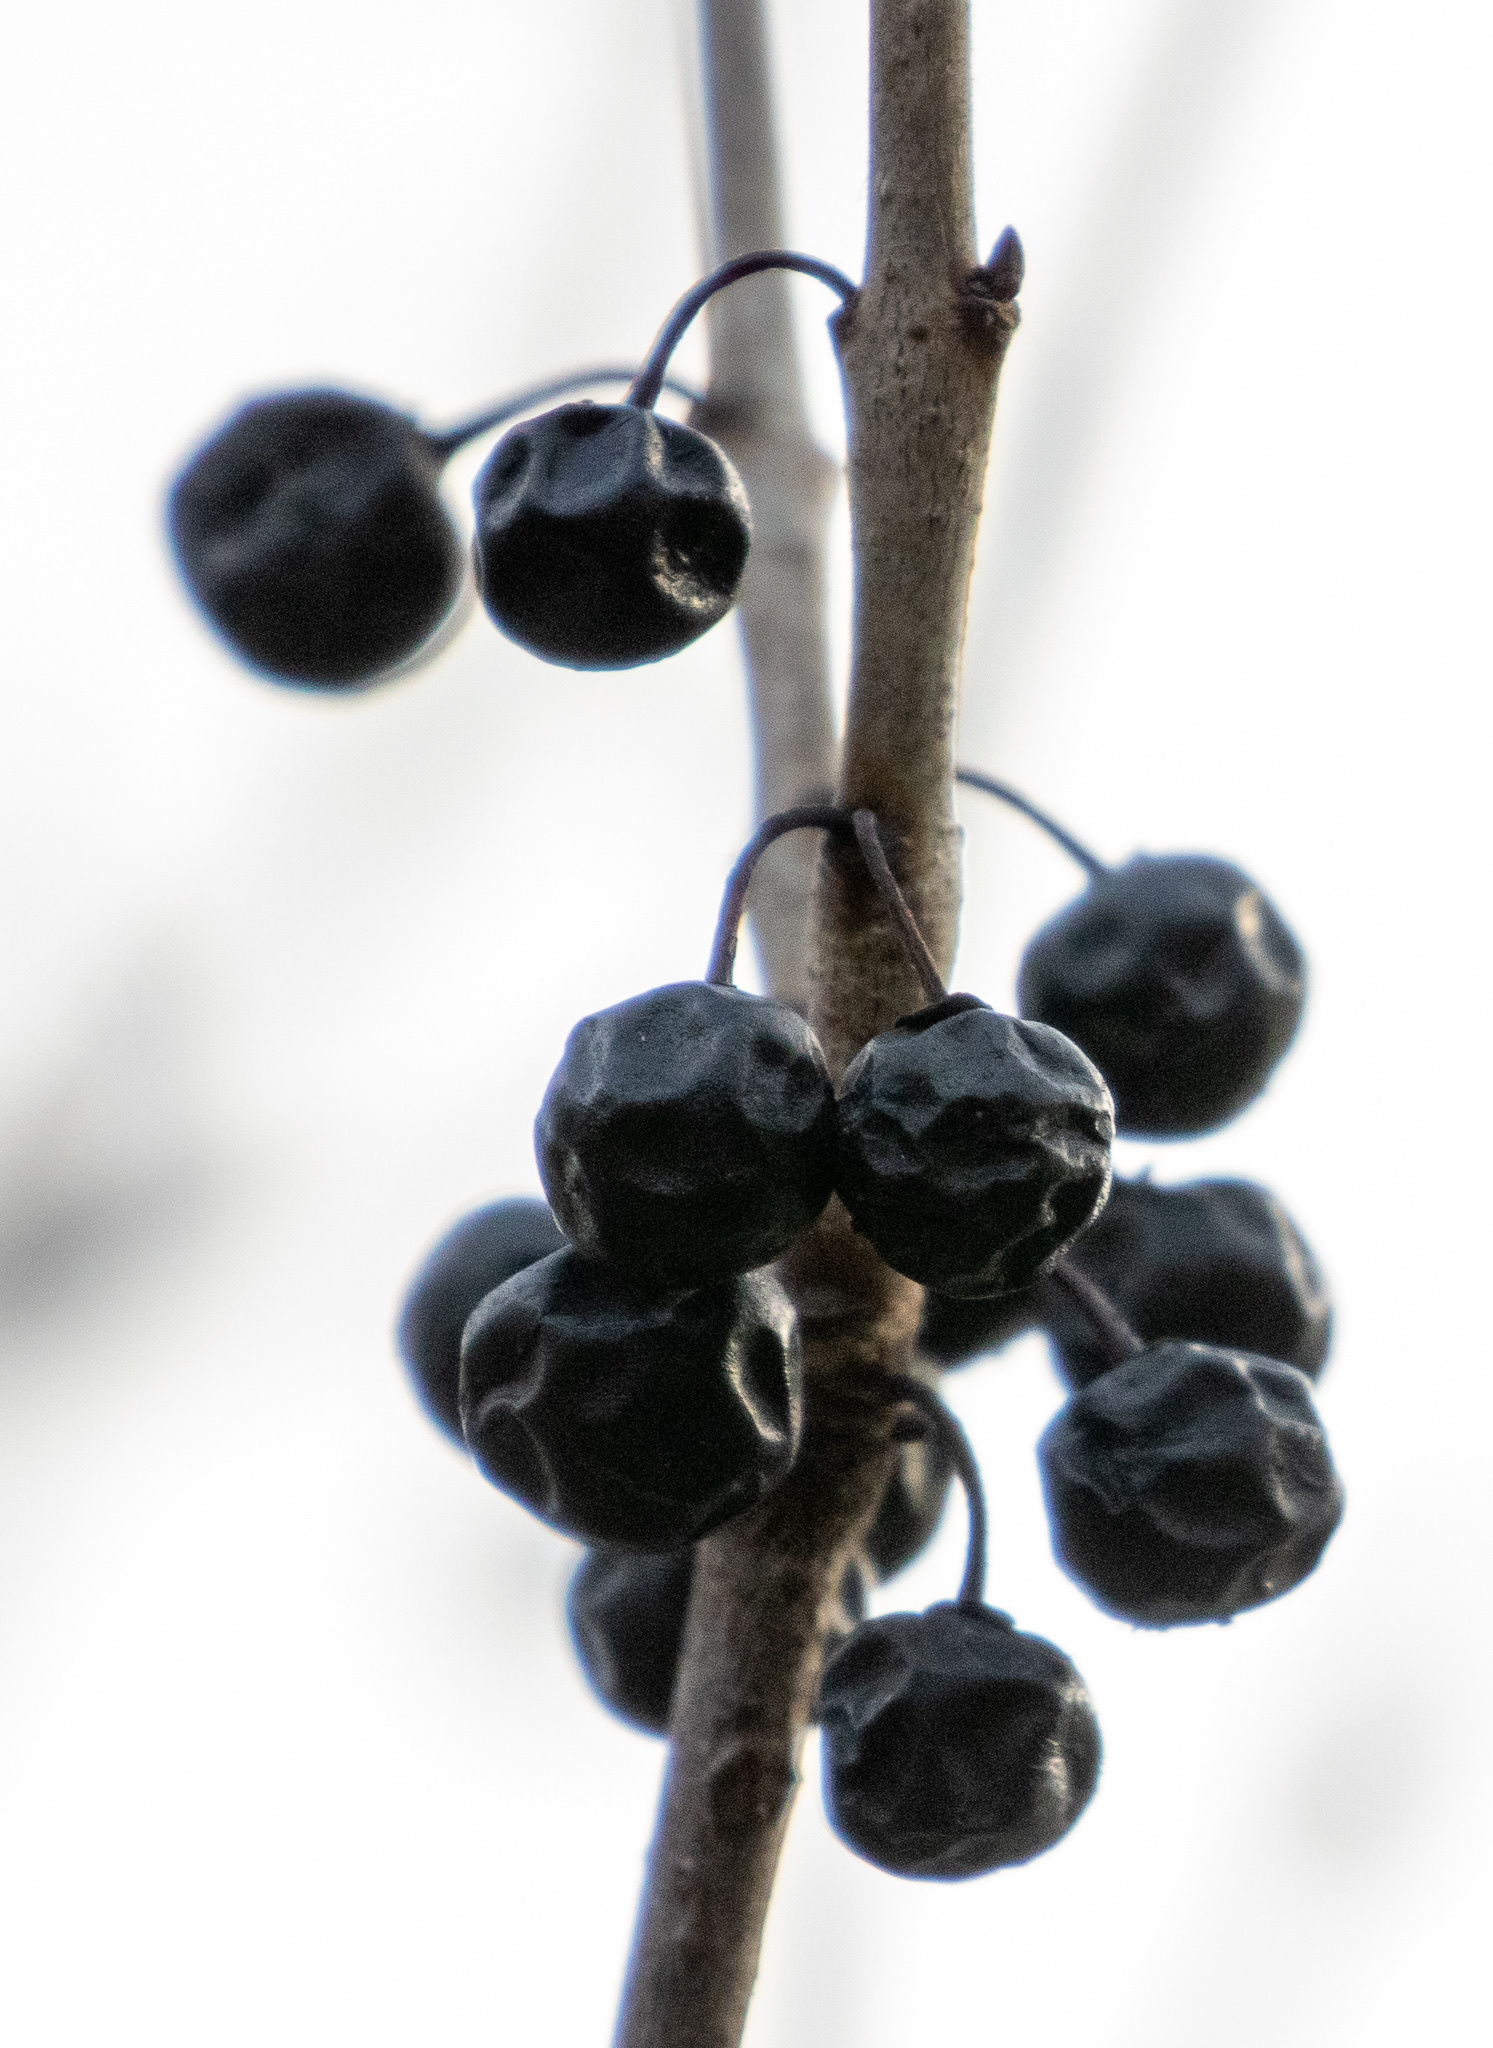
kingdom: Plantae
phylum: Tracheophyta
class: Magnoliopsida
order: Rosales
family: Rhamnaceae
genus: Rhamnus
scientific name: Rhamnus cathartica
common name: Common buckthorn
